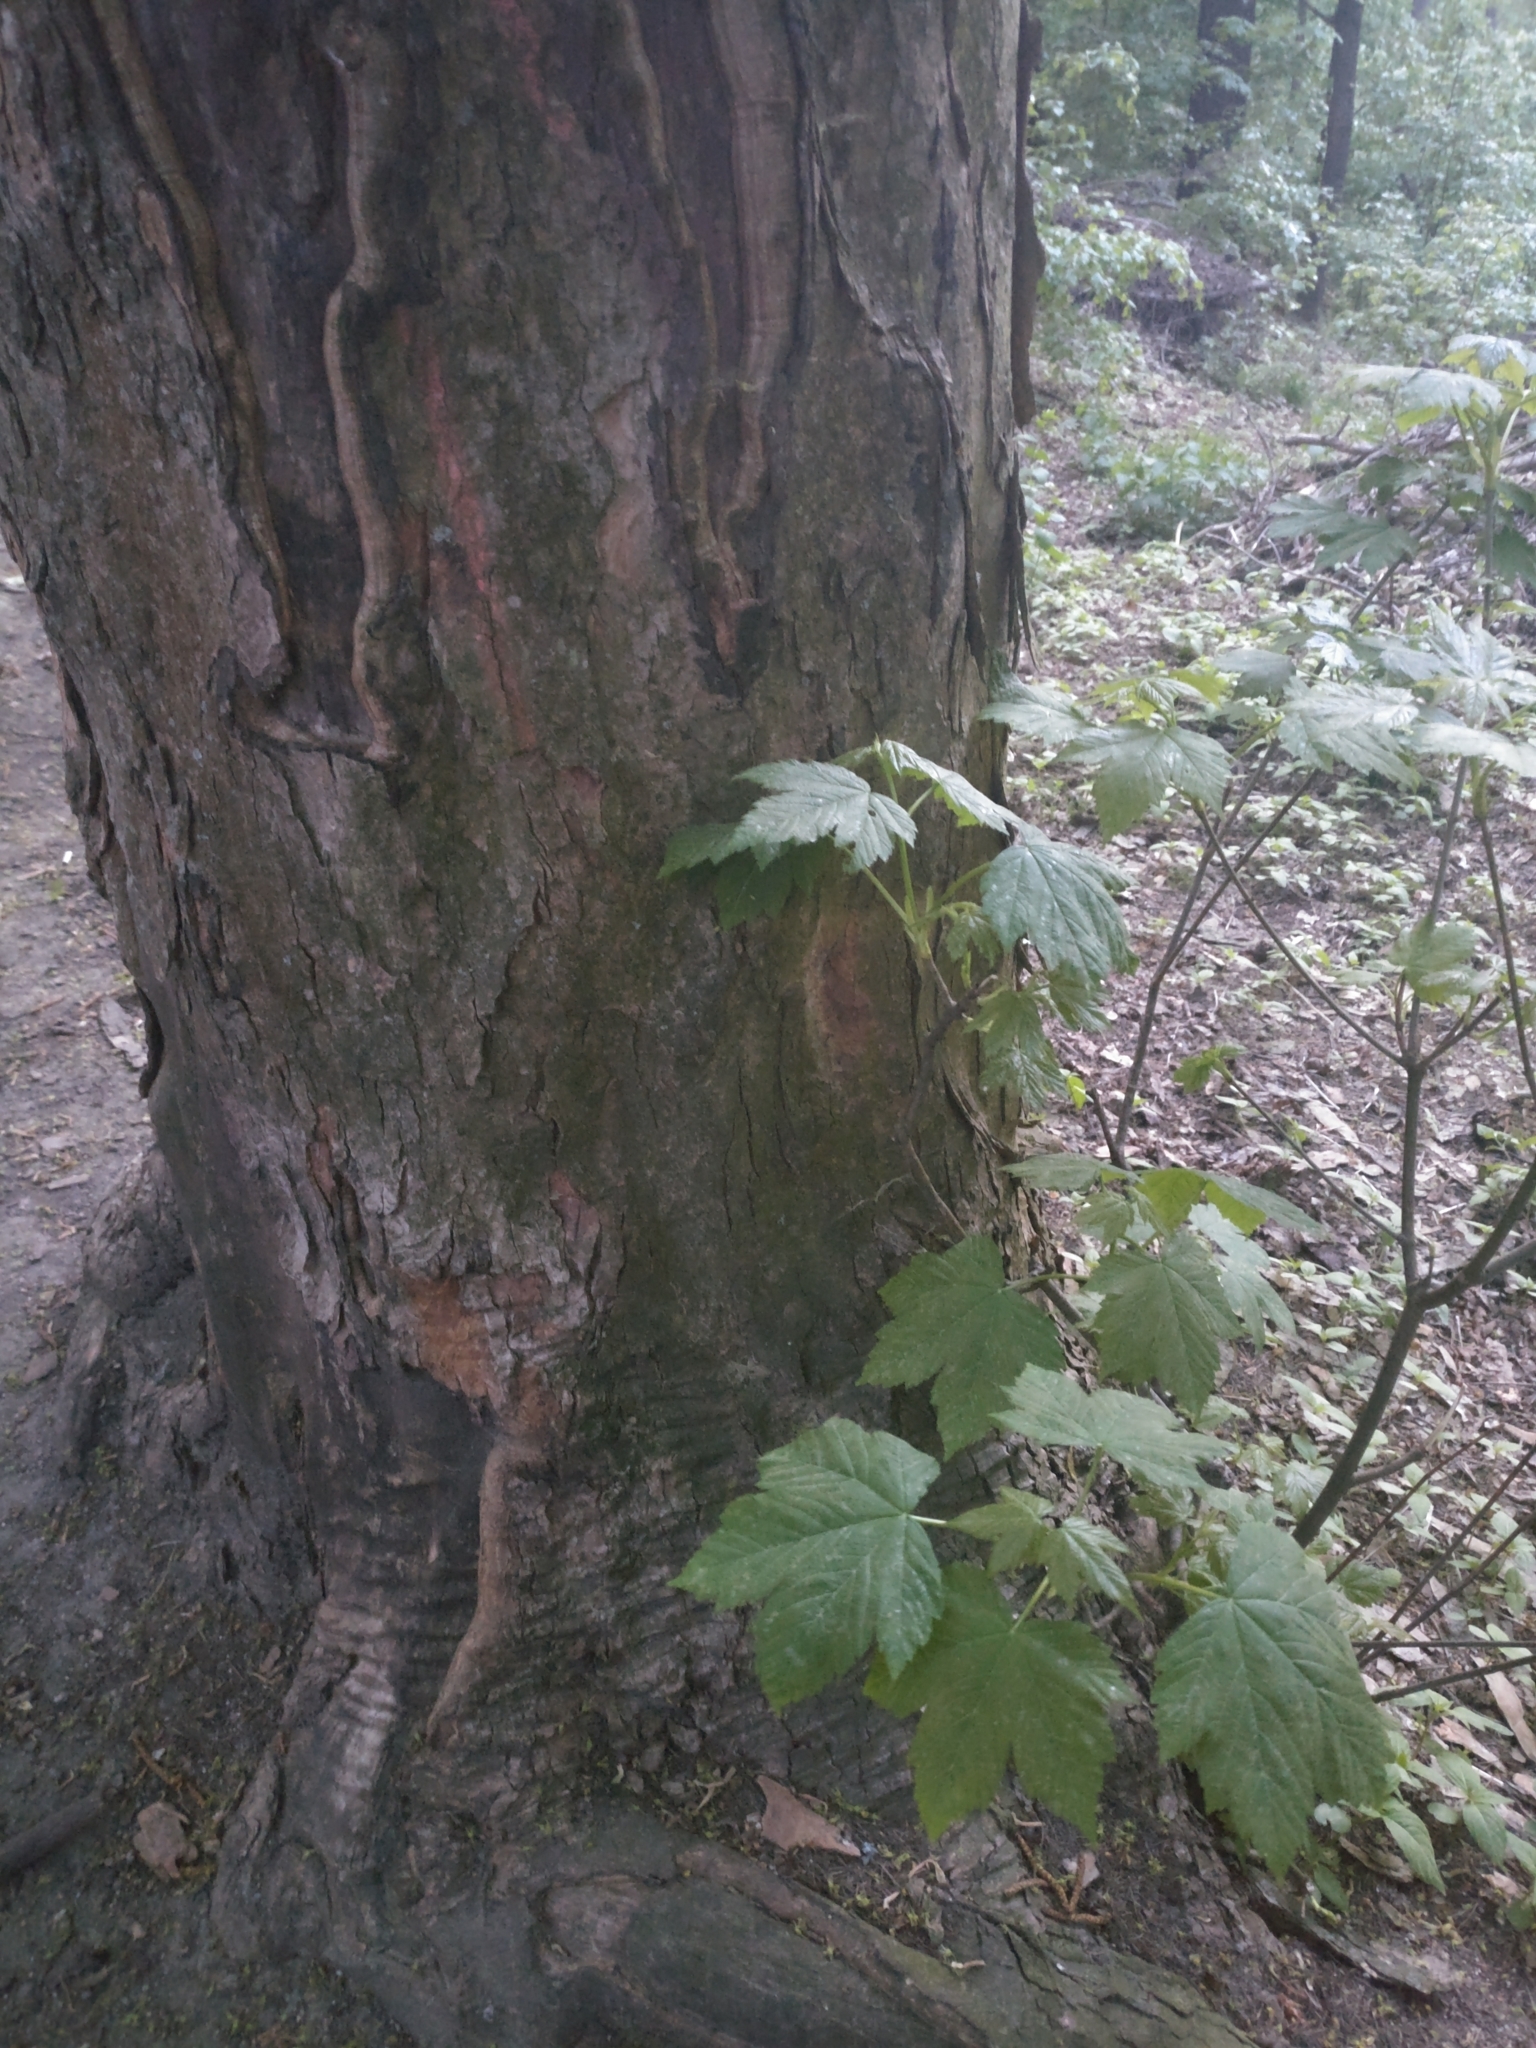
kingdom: Plantae
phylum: Tracheophyta
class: Magnoliopsida
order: Sapindales
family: Sapindaceae
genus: Acer
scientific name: Acer pseudoplatanus
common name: Sycamore
